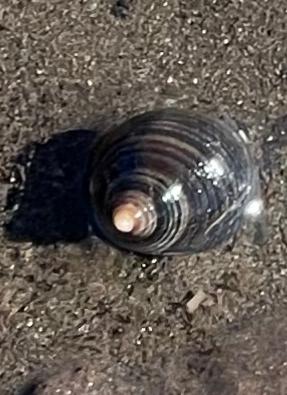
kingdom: Animalia
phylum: Mollusca
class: Gastropoda
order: Littorinimorpha
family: Littorinidae
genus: Littorina
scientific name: Littorina littorea
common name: Common periwinkle
